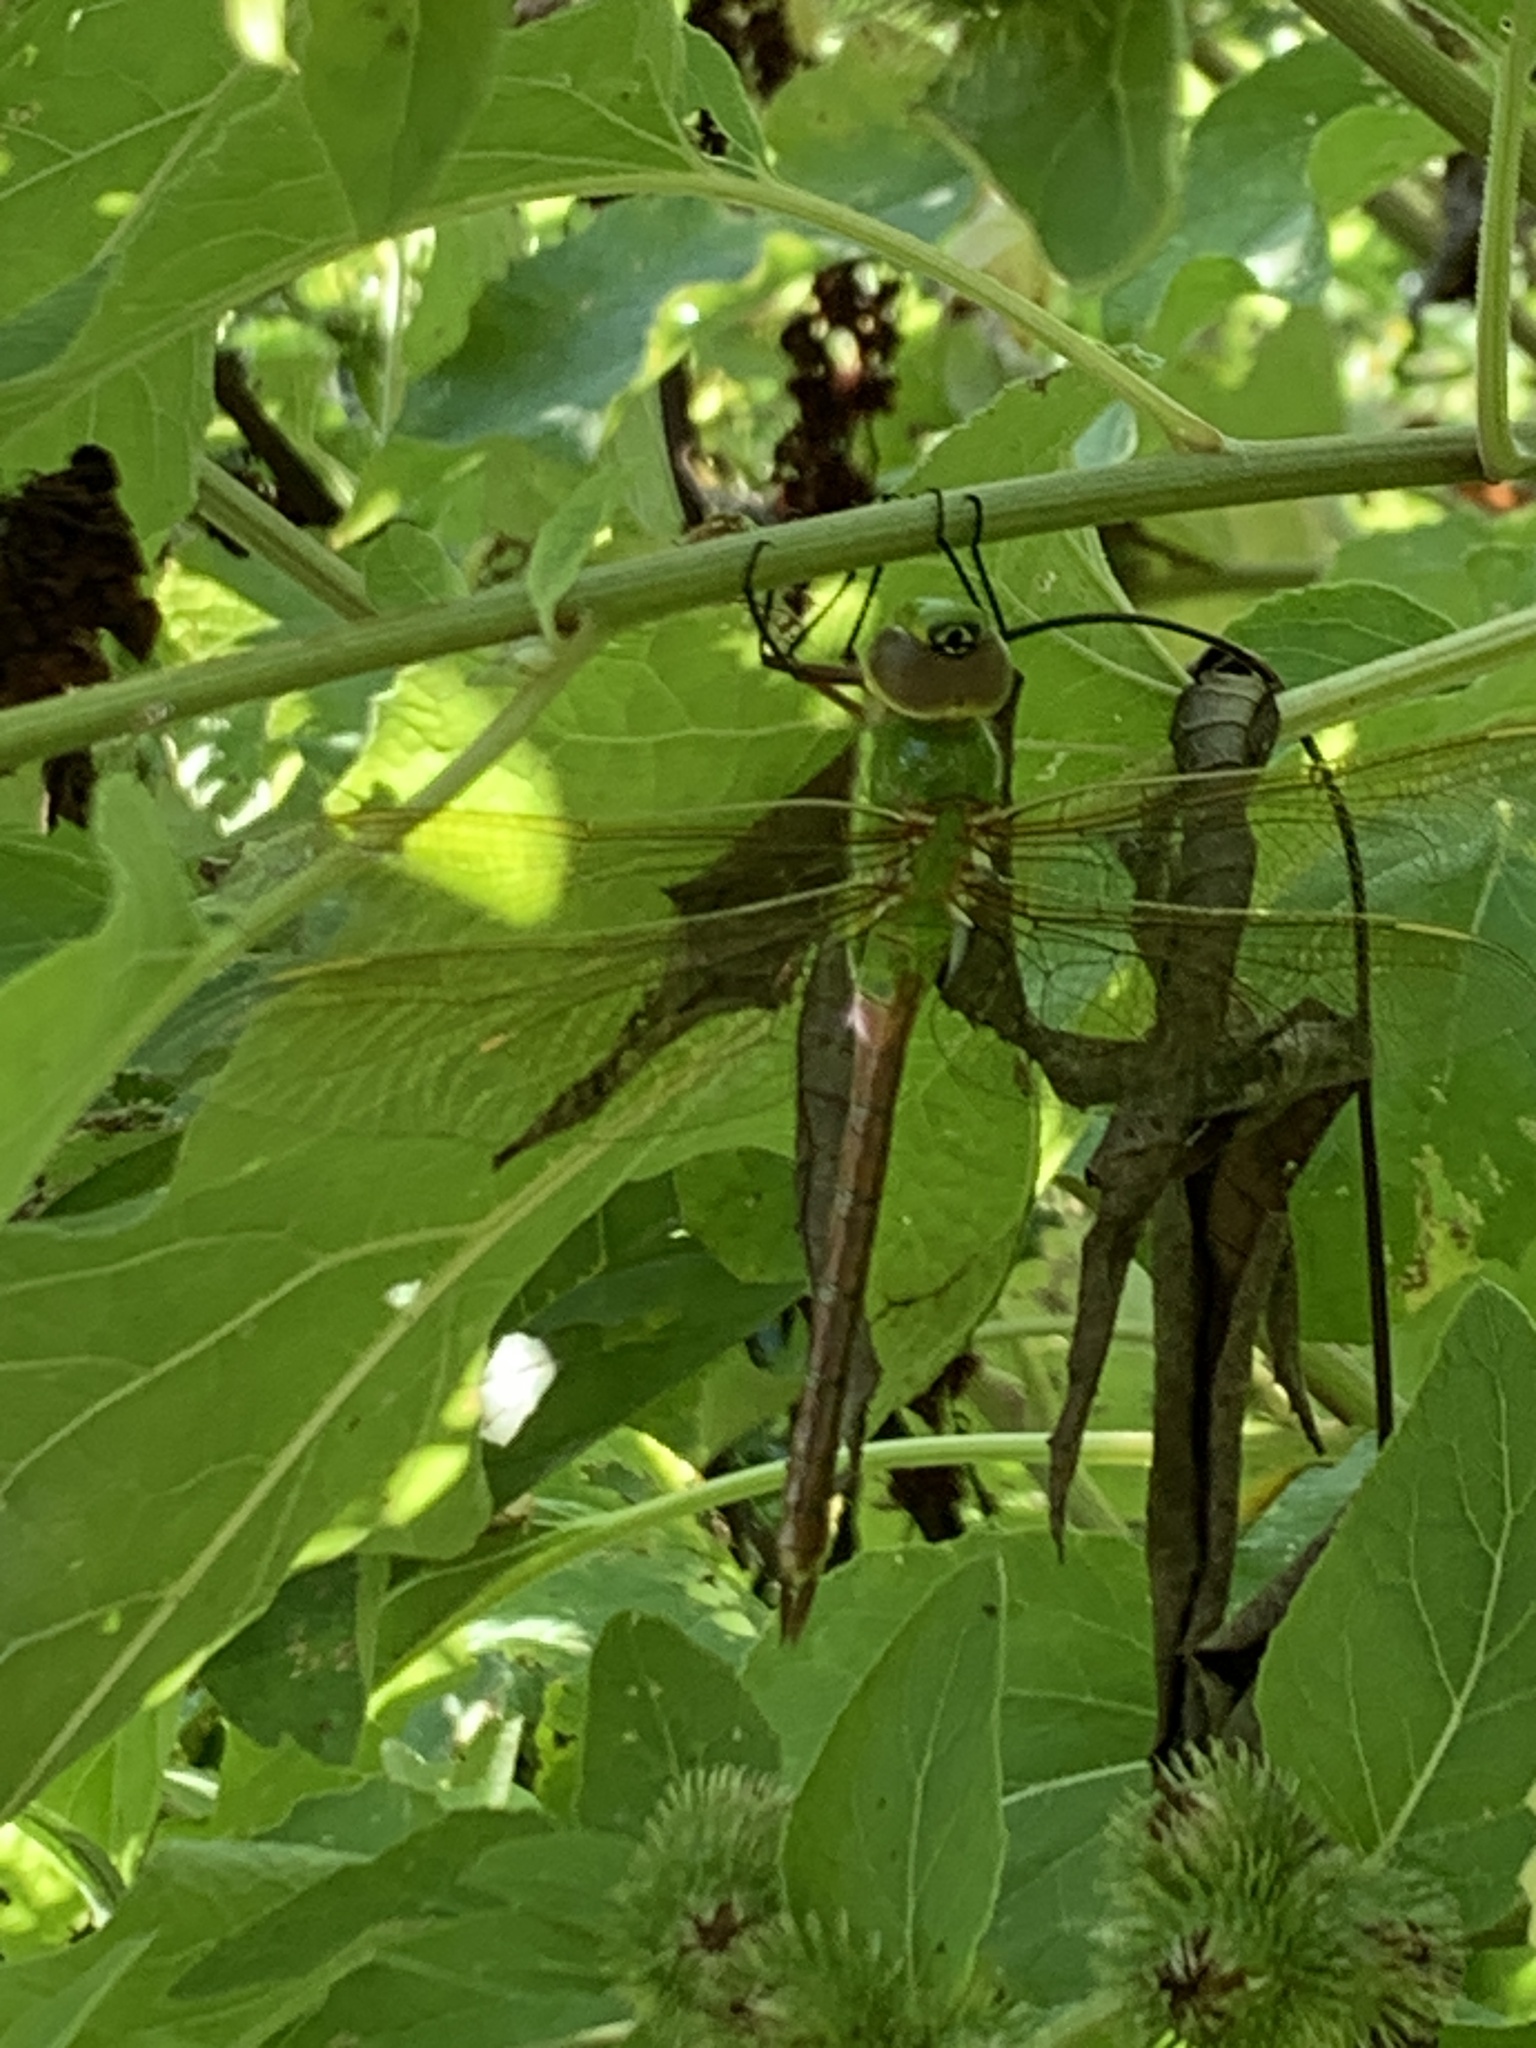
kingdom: Animalia
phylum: Arthropoda
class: Insecta
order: Odonata
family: Aeshnidae
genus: Anax
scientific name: Anax junius
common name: Common green darner
